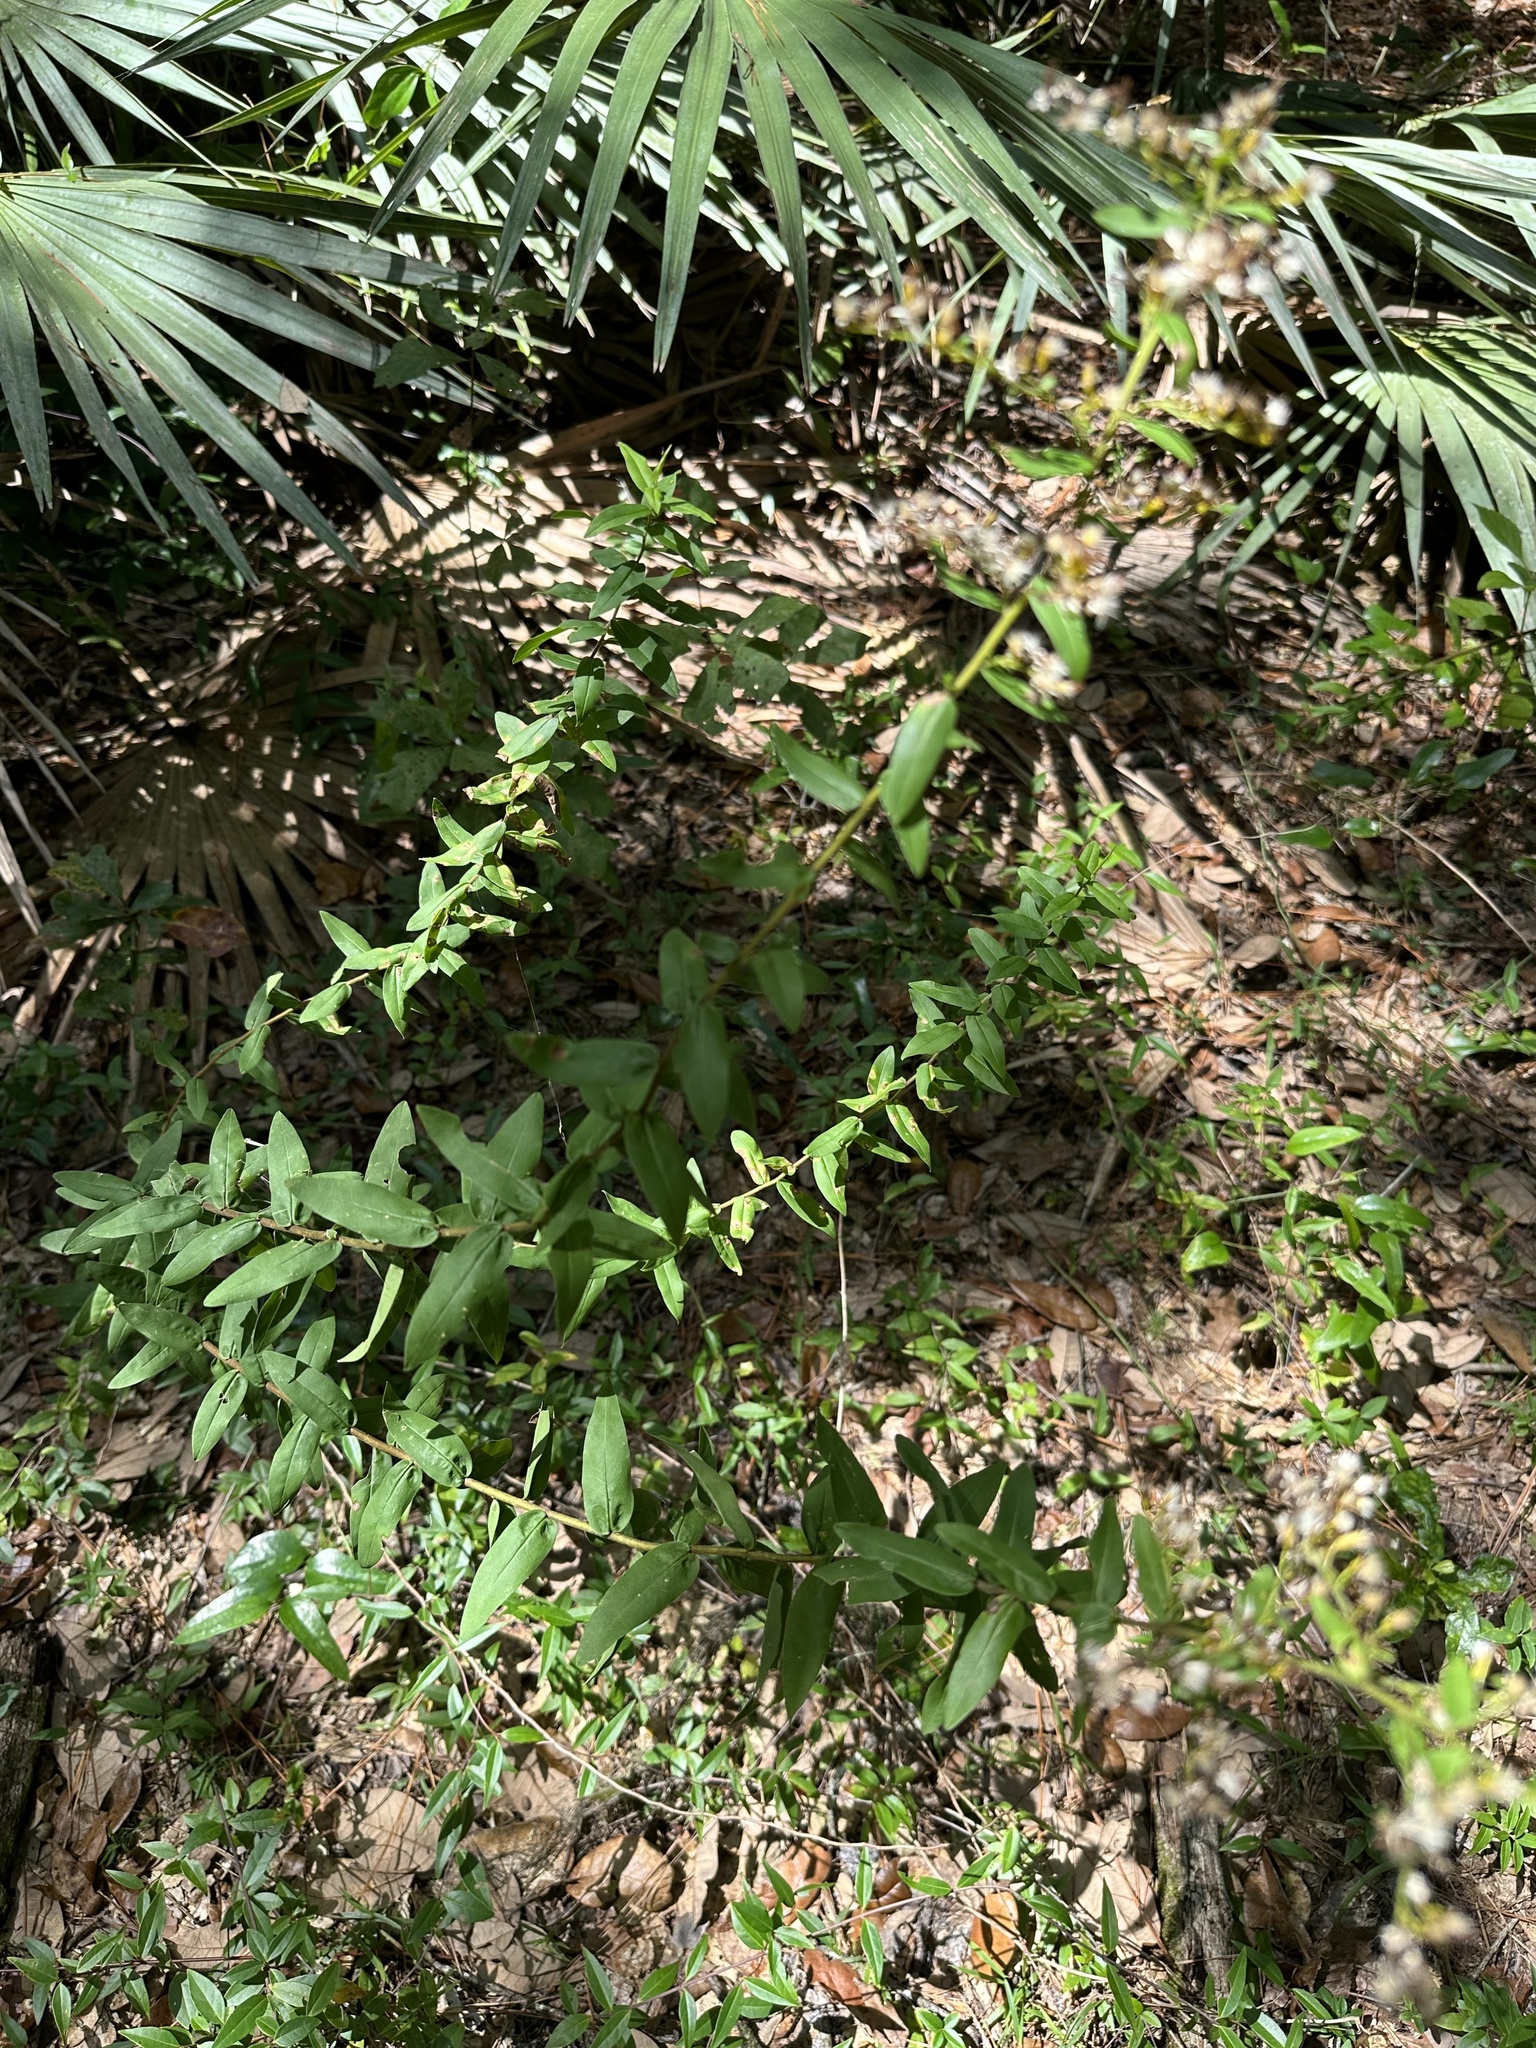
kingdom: Plantae
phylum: Tracheophyta
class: Magnoliopsida
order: Asterales
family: Asteraceae
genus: Solidago
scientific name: Solidago fistulosa
